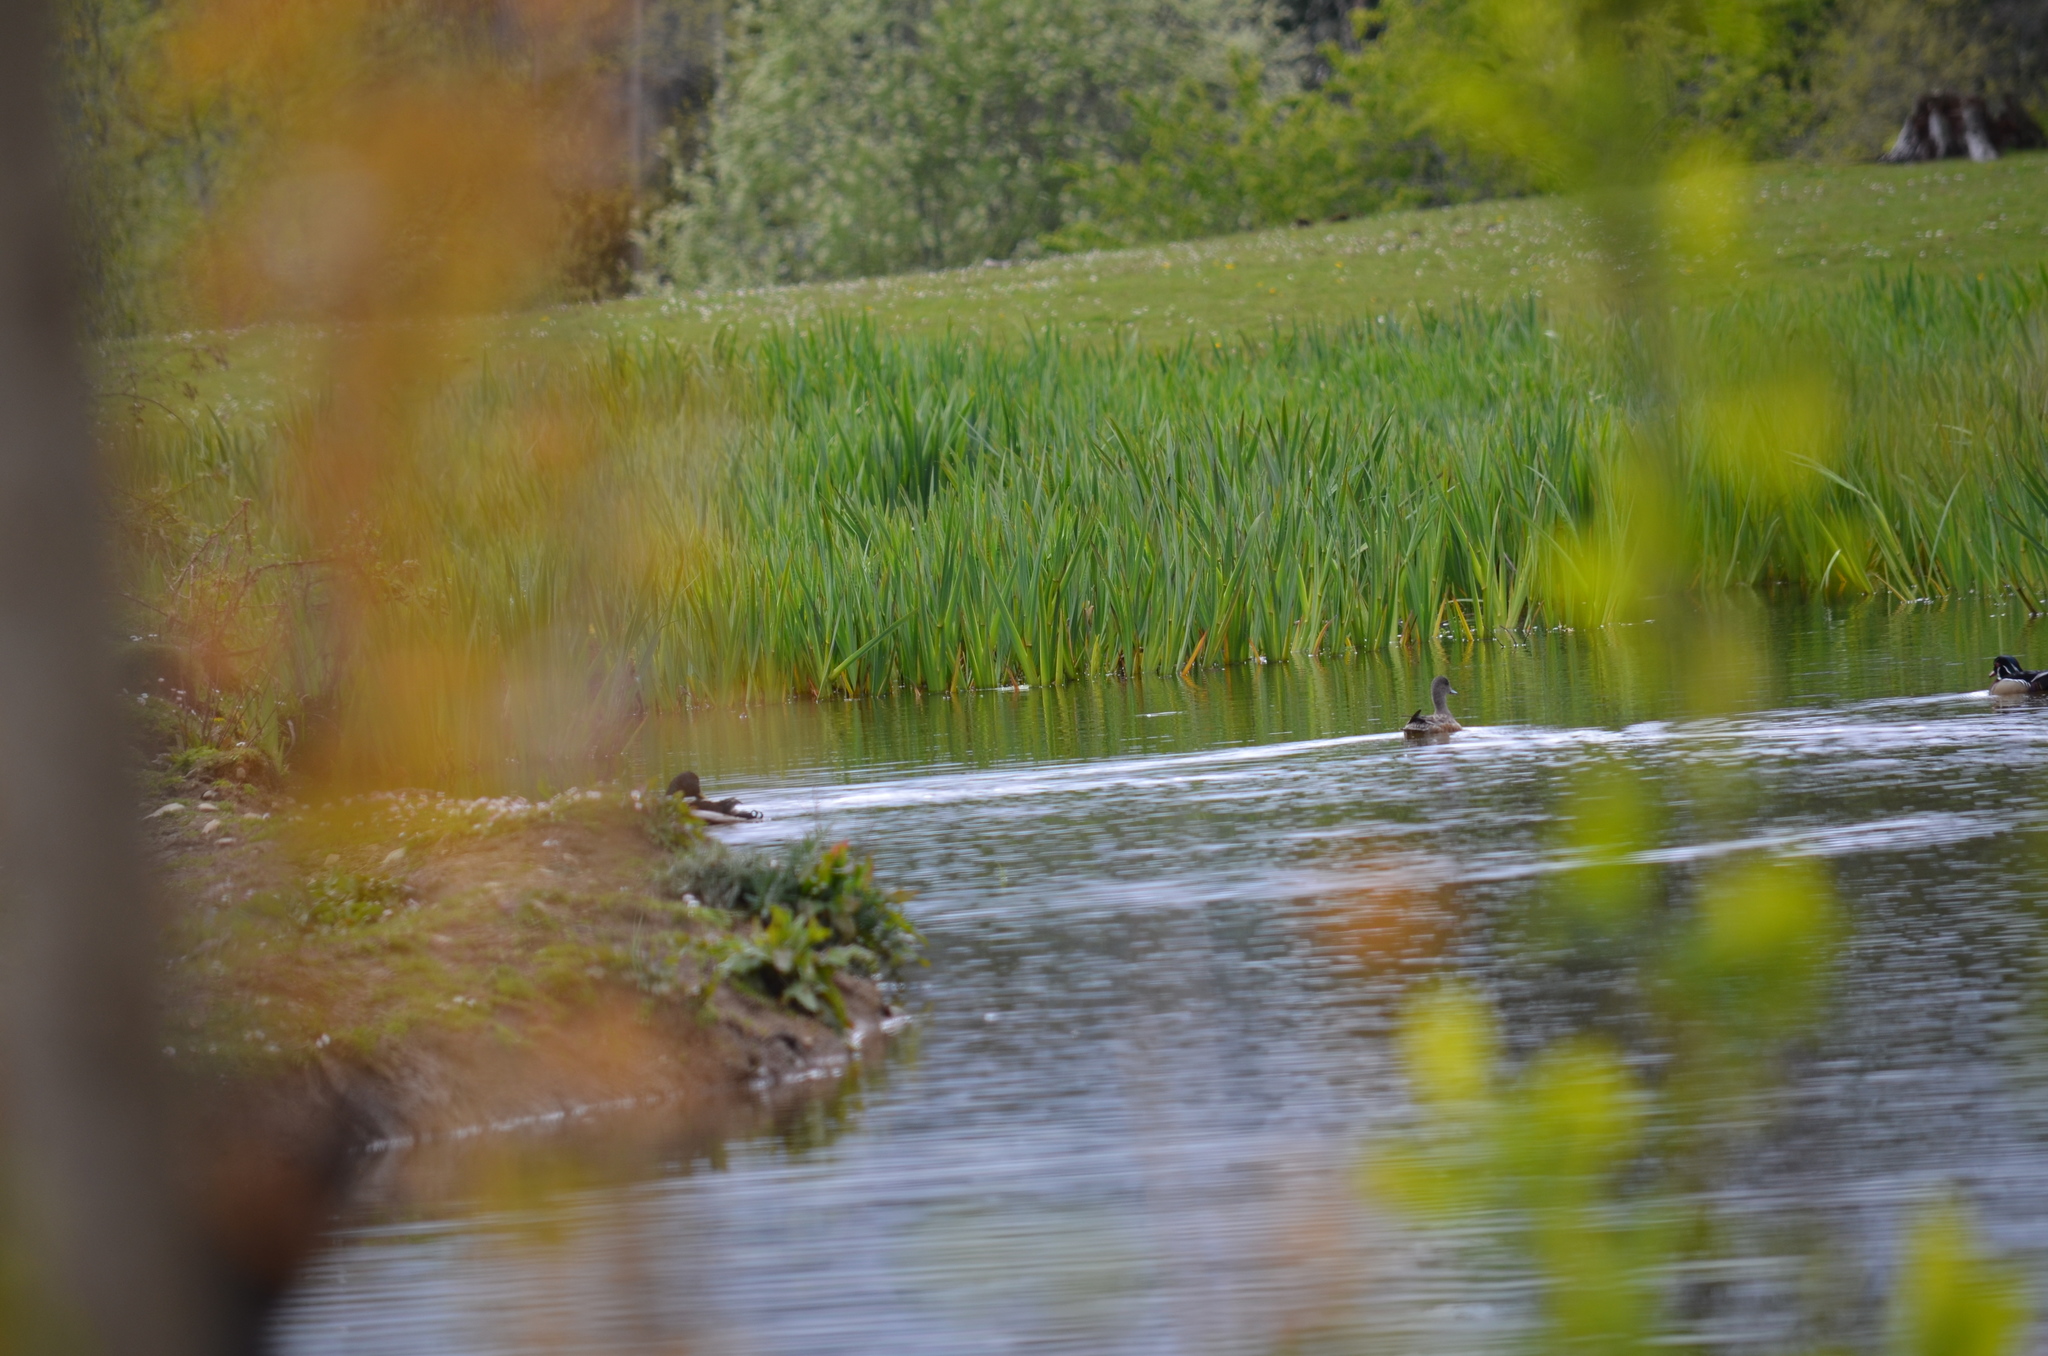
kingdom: Animalia
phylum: Chordata
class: Aves
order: Anseriformes
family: Anatidae
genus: Anas
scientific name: Anas platyrhynchos
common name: Mallard
